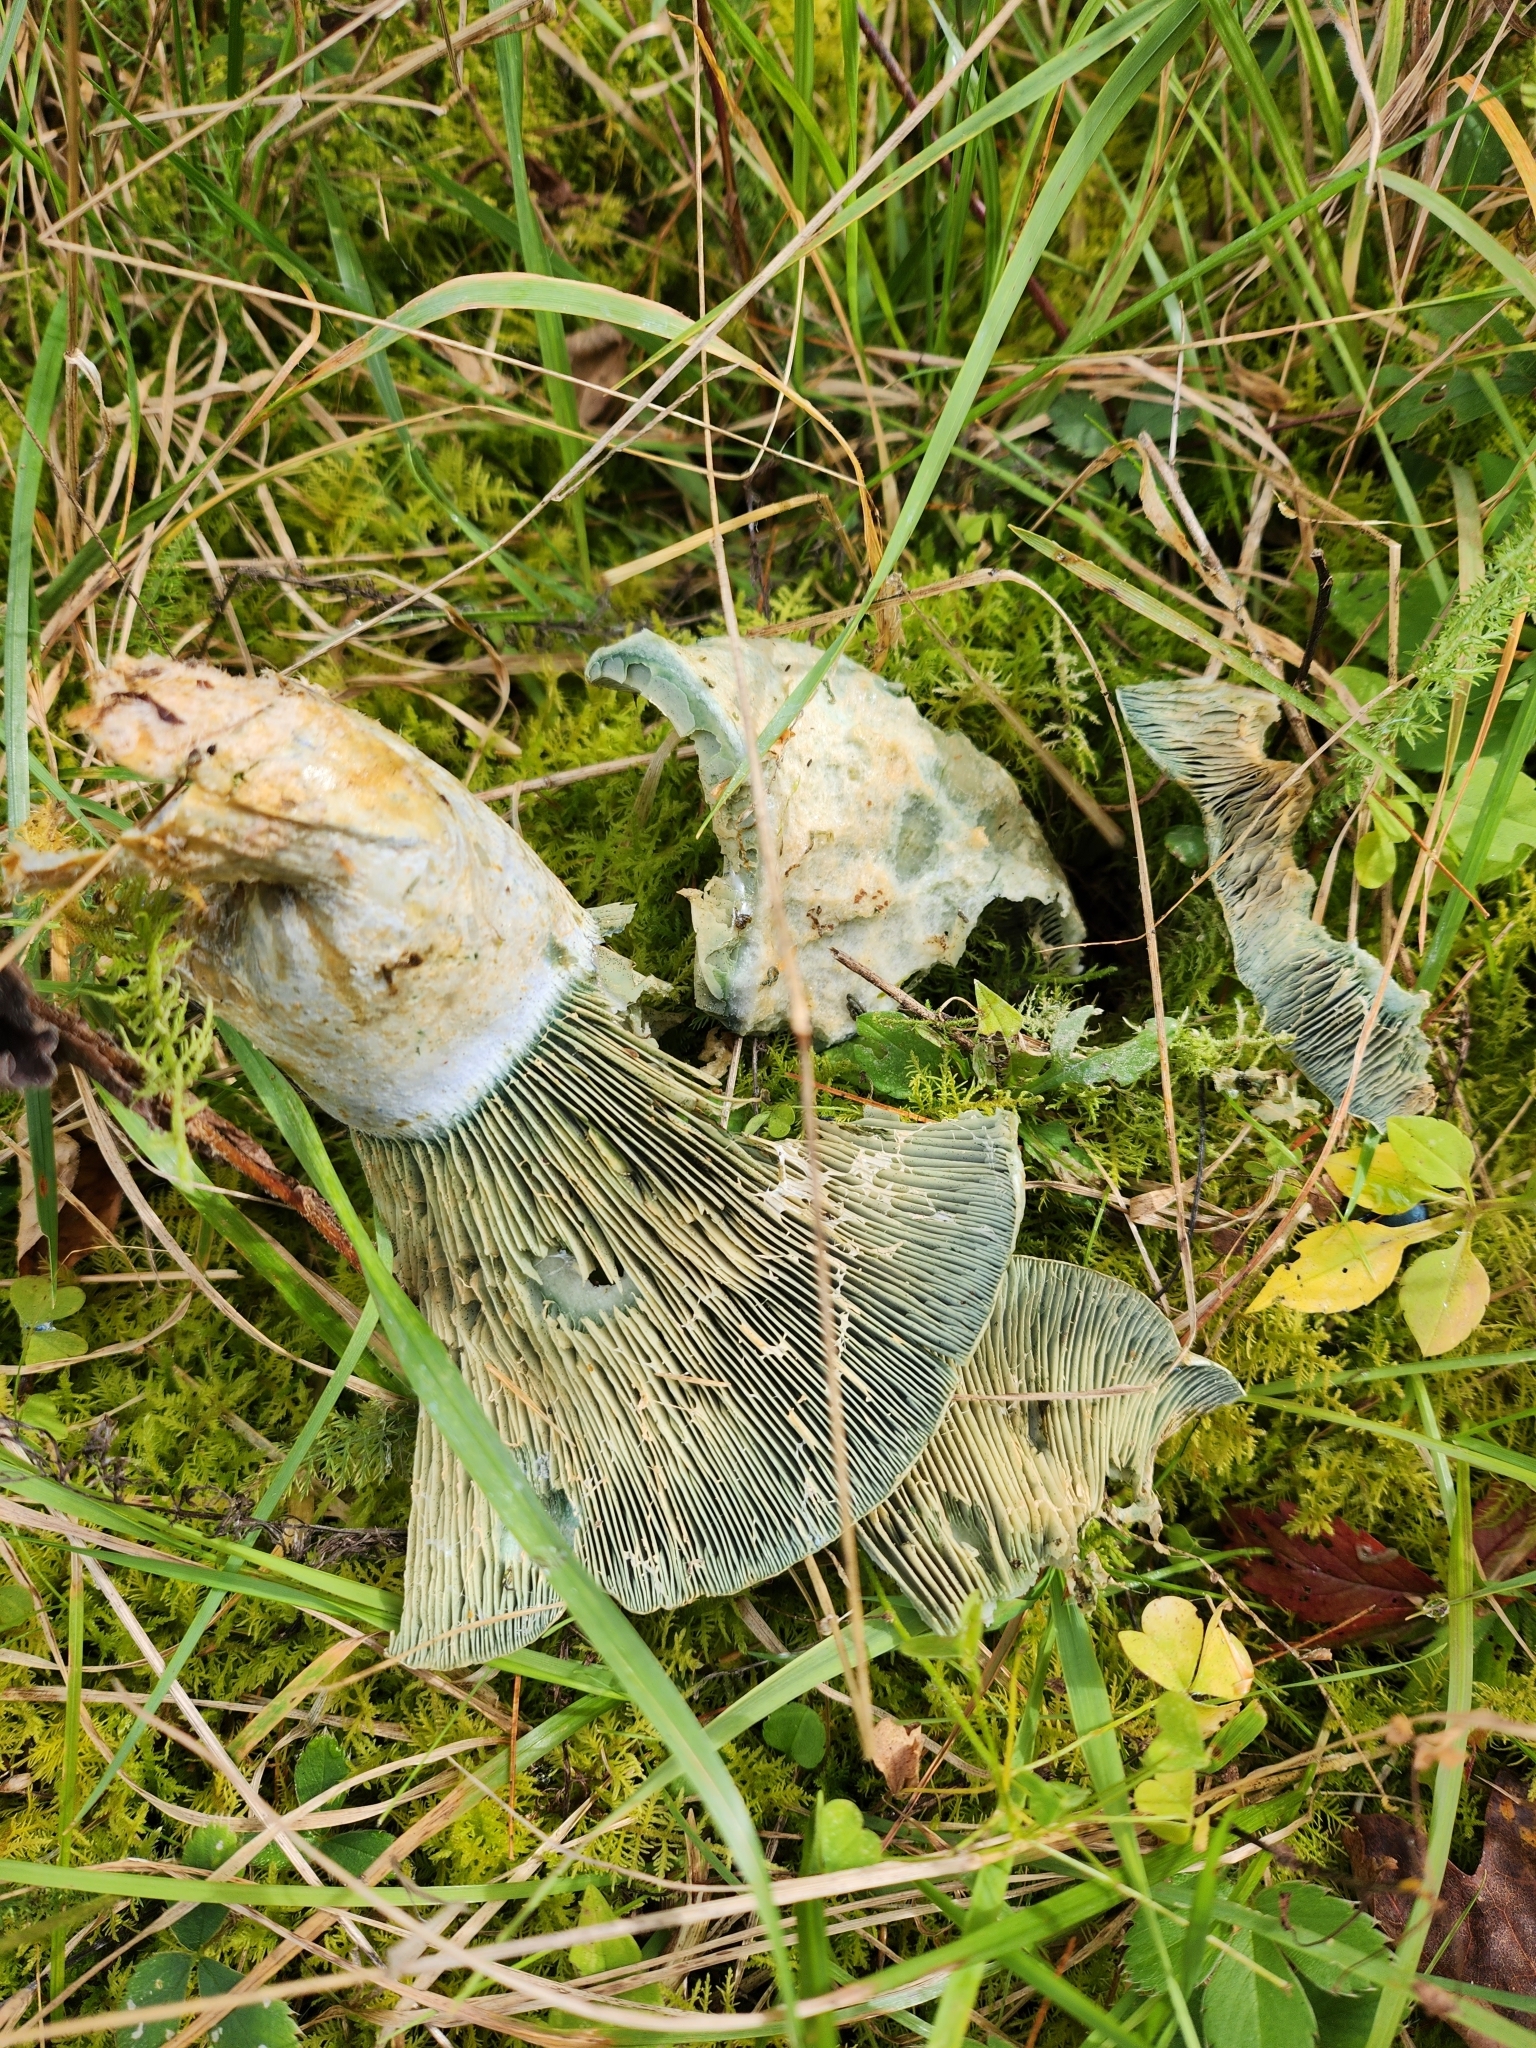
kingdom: Fungi
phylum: Basidiomycota
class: Agaricomycetes
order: Russulales
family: Russulaceae
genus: Lactarius
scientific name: Lactarius indigo
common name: Indigo milk cap
